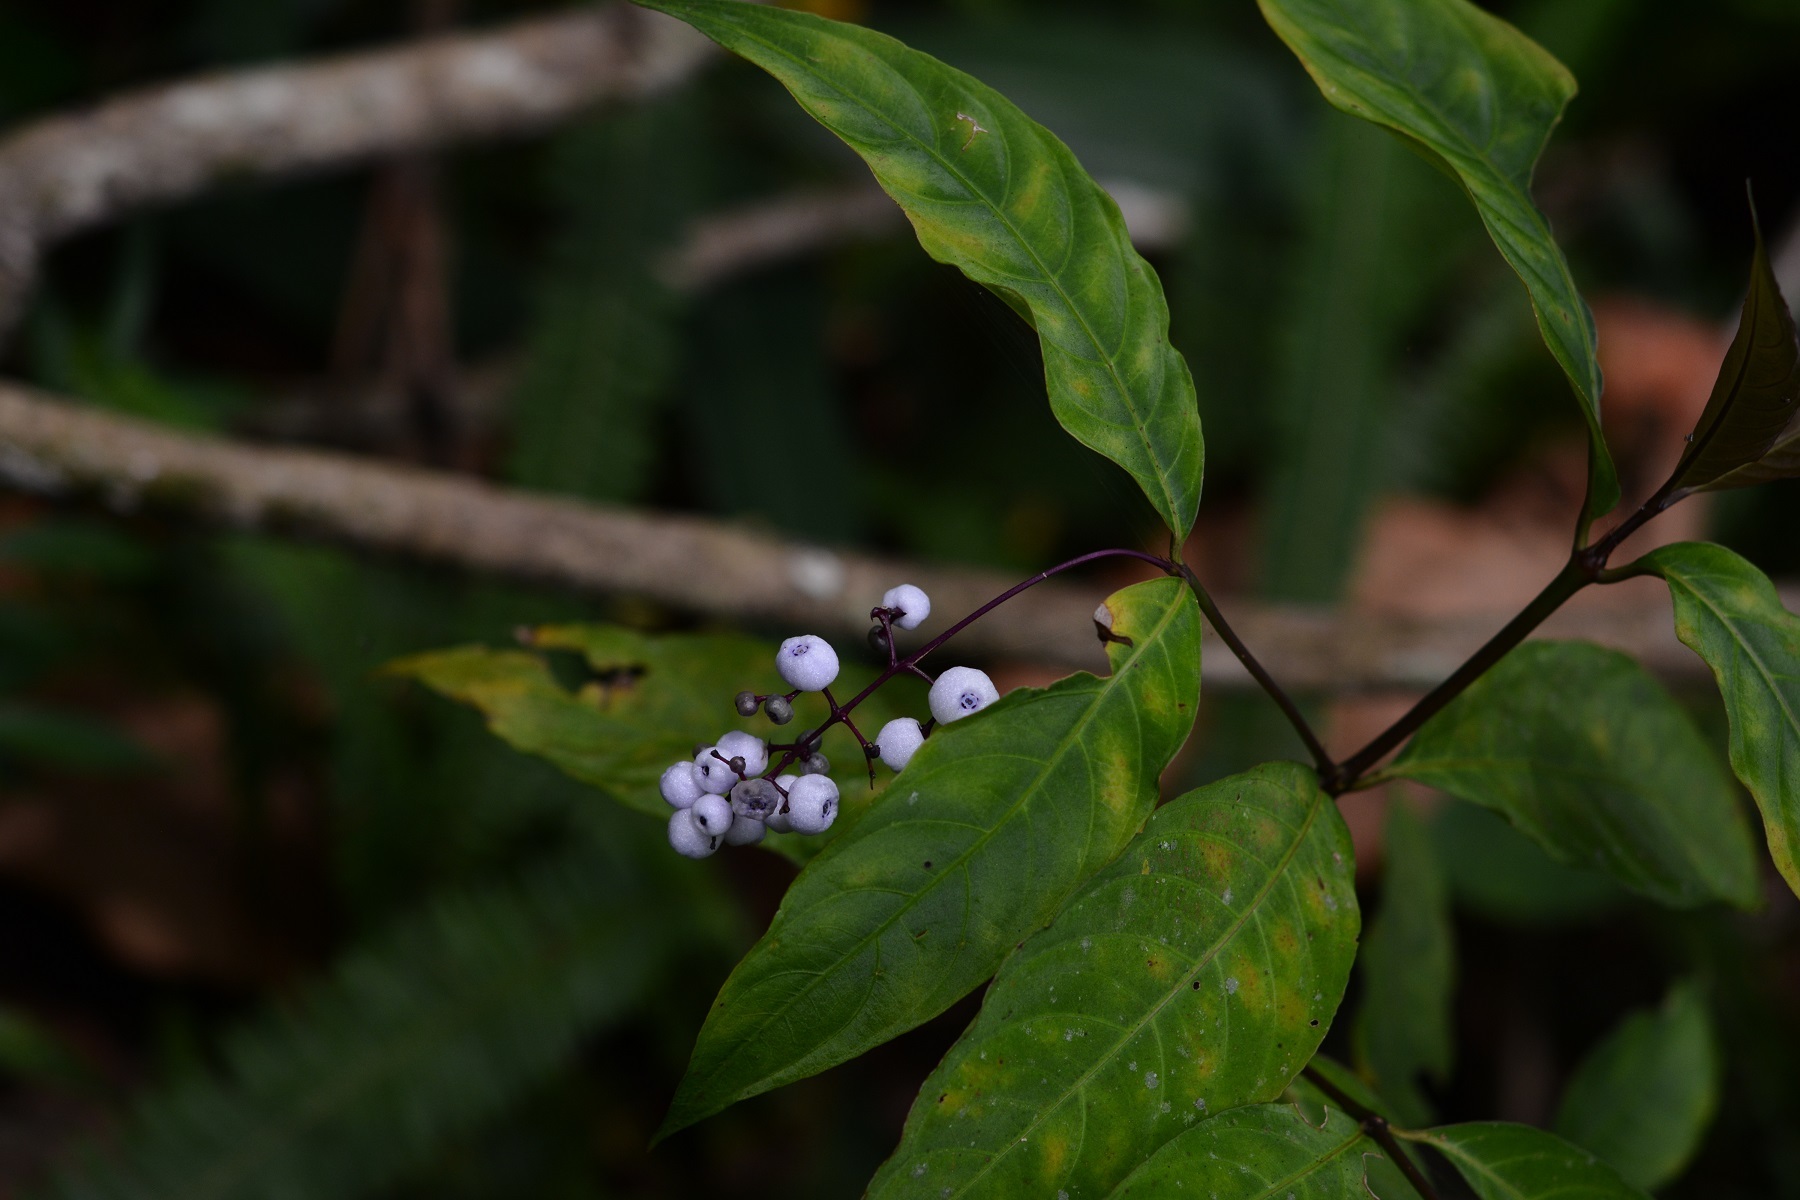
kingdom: Plantae
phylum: Tracheophyta
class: Magnoliopsida
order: Gentianales
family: Rubiaceae
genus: Palicourea
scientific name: Palicourea deflexa
